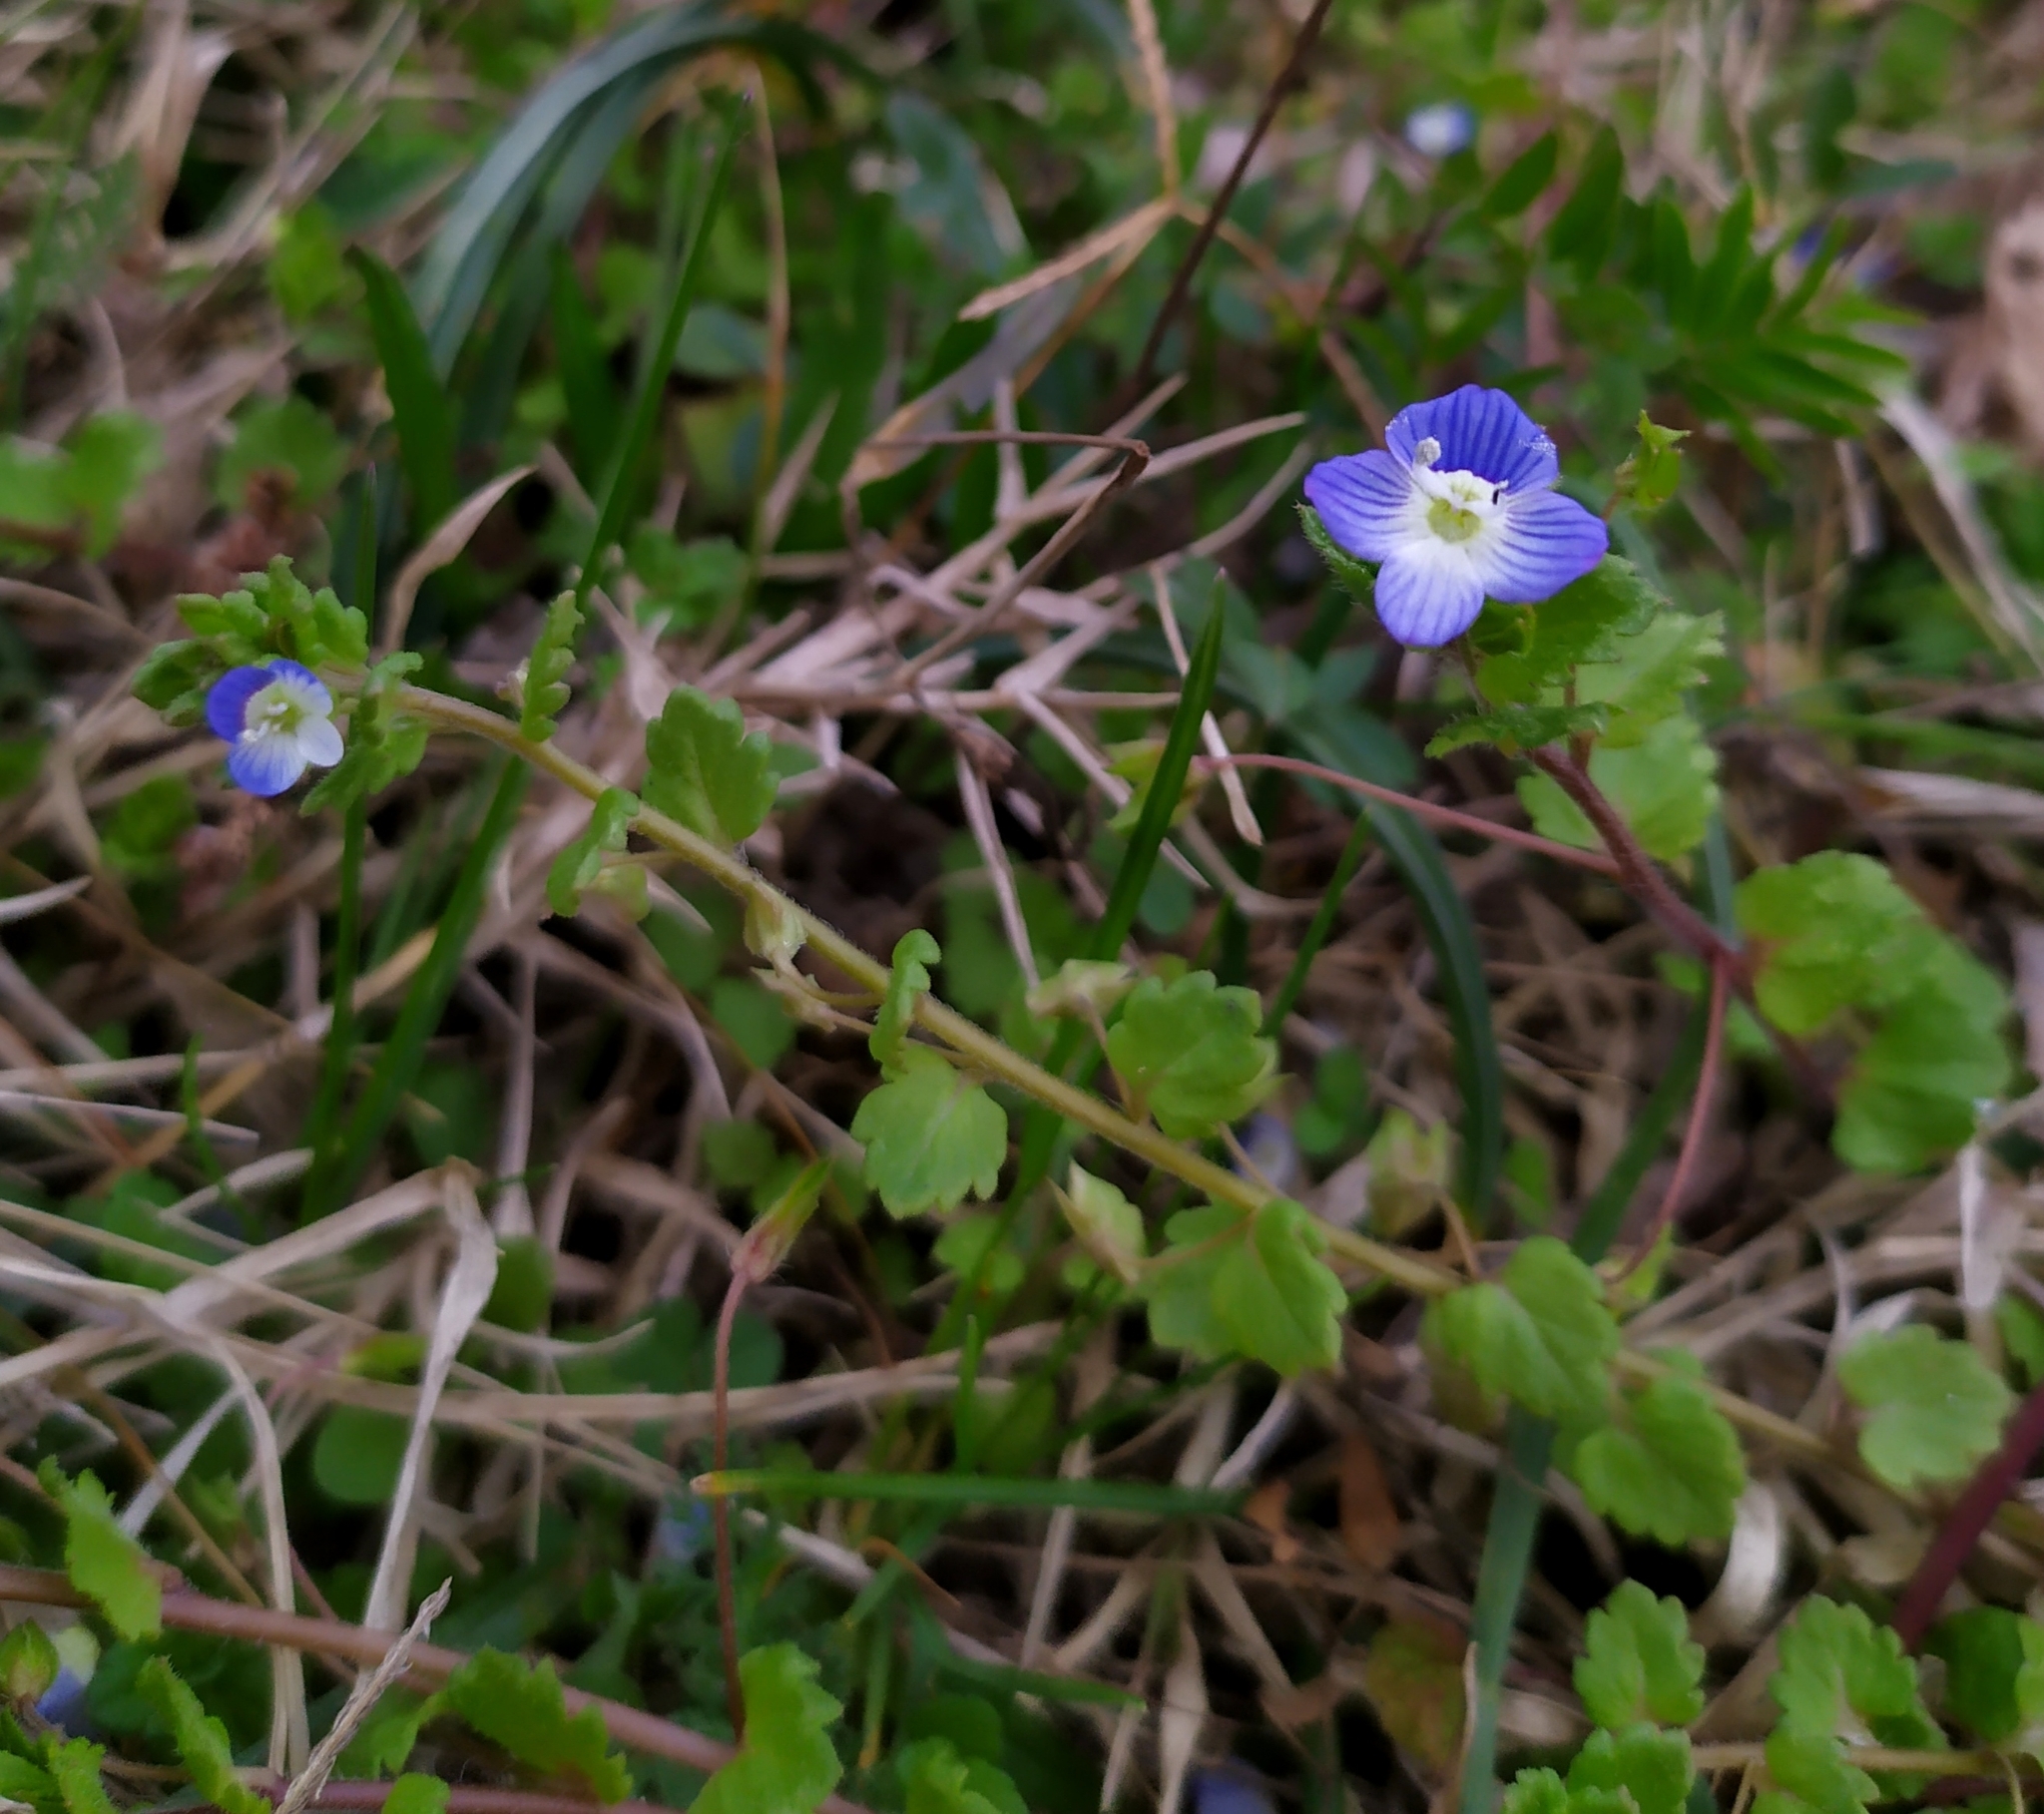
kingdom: Plantae
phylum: Tracheophyta
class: Magnoliopsida
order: Lamiales
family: Plantaginaceae
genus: Veronica
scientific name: Veronica polita
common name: Grey field-speedwell
